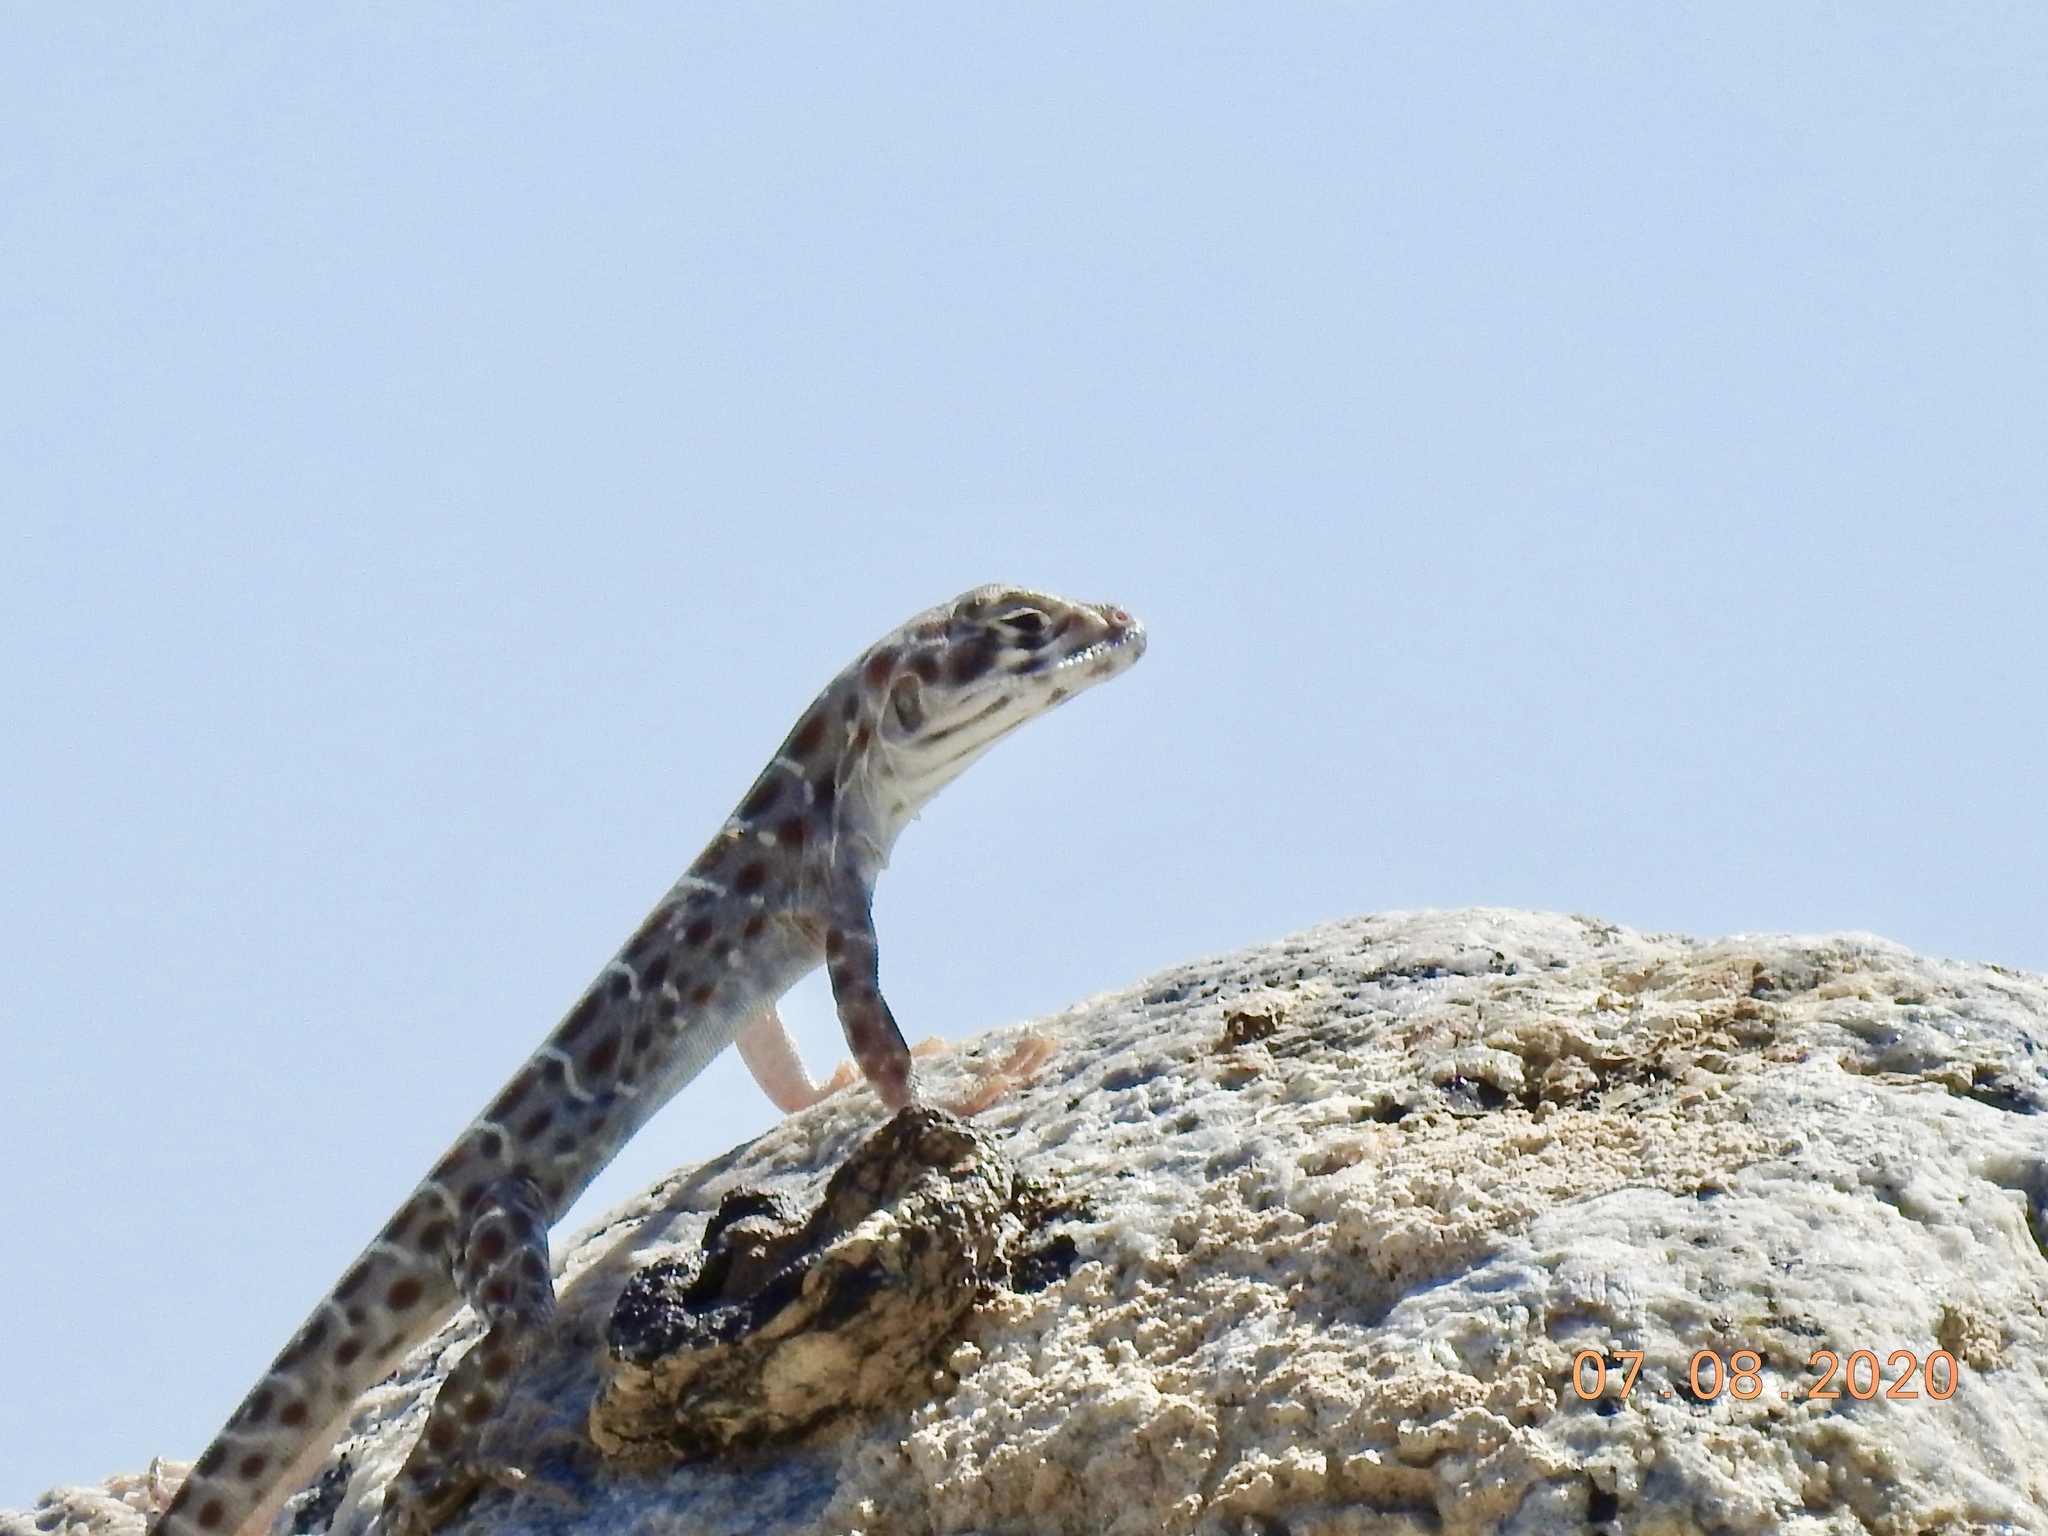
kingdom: Animalia
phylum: Chordata
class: Squamata
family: Crotaphytidae
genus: Gambelia
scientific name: Gambelia wislizenii
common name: Longnose leopard lizard
